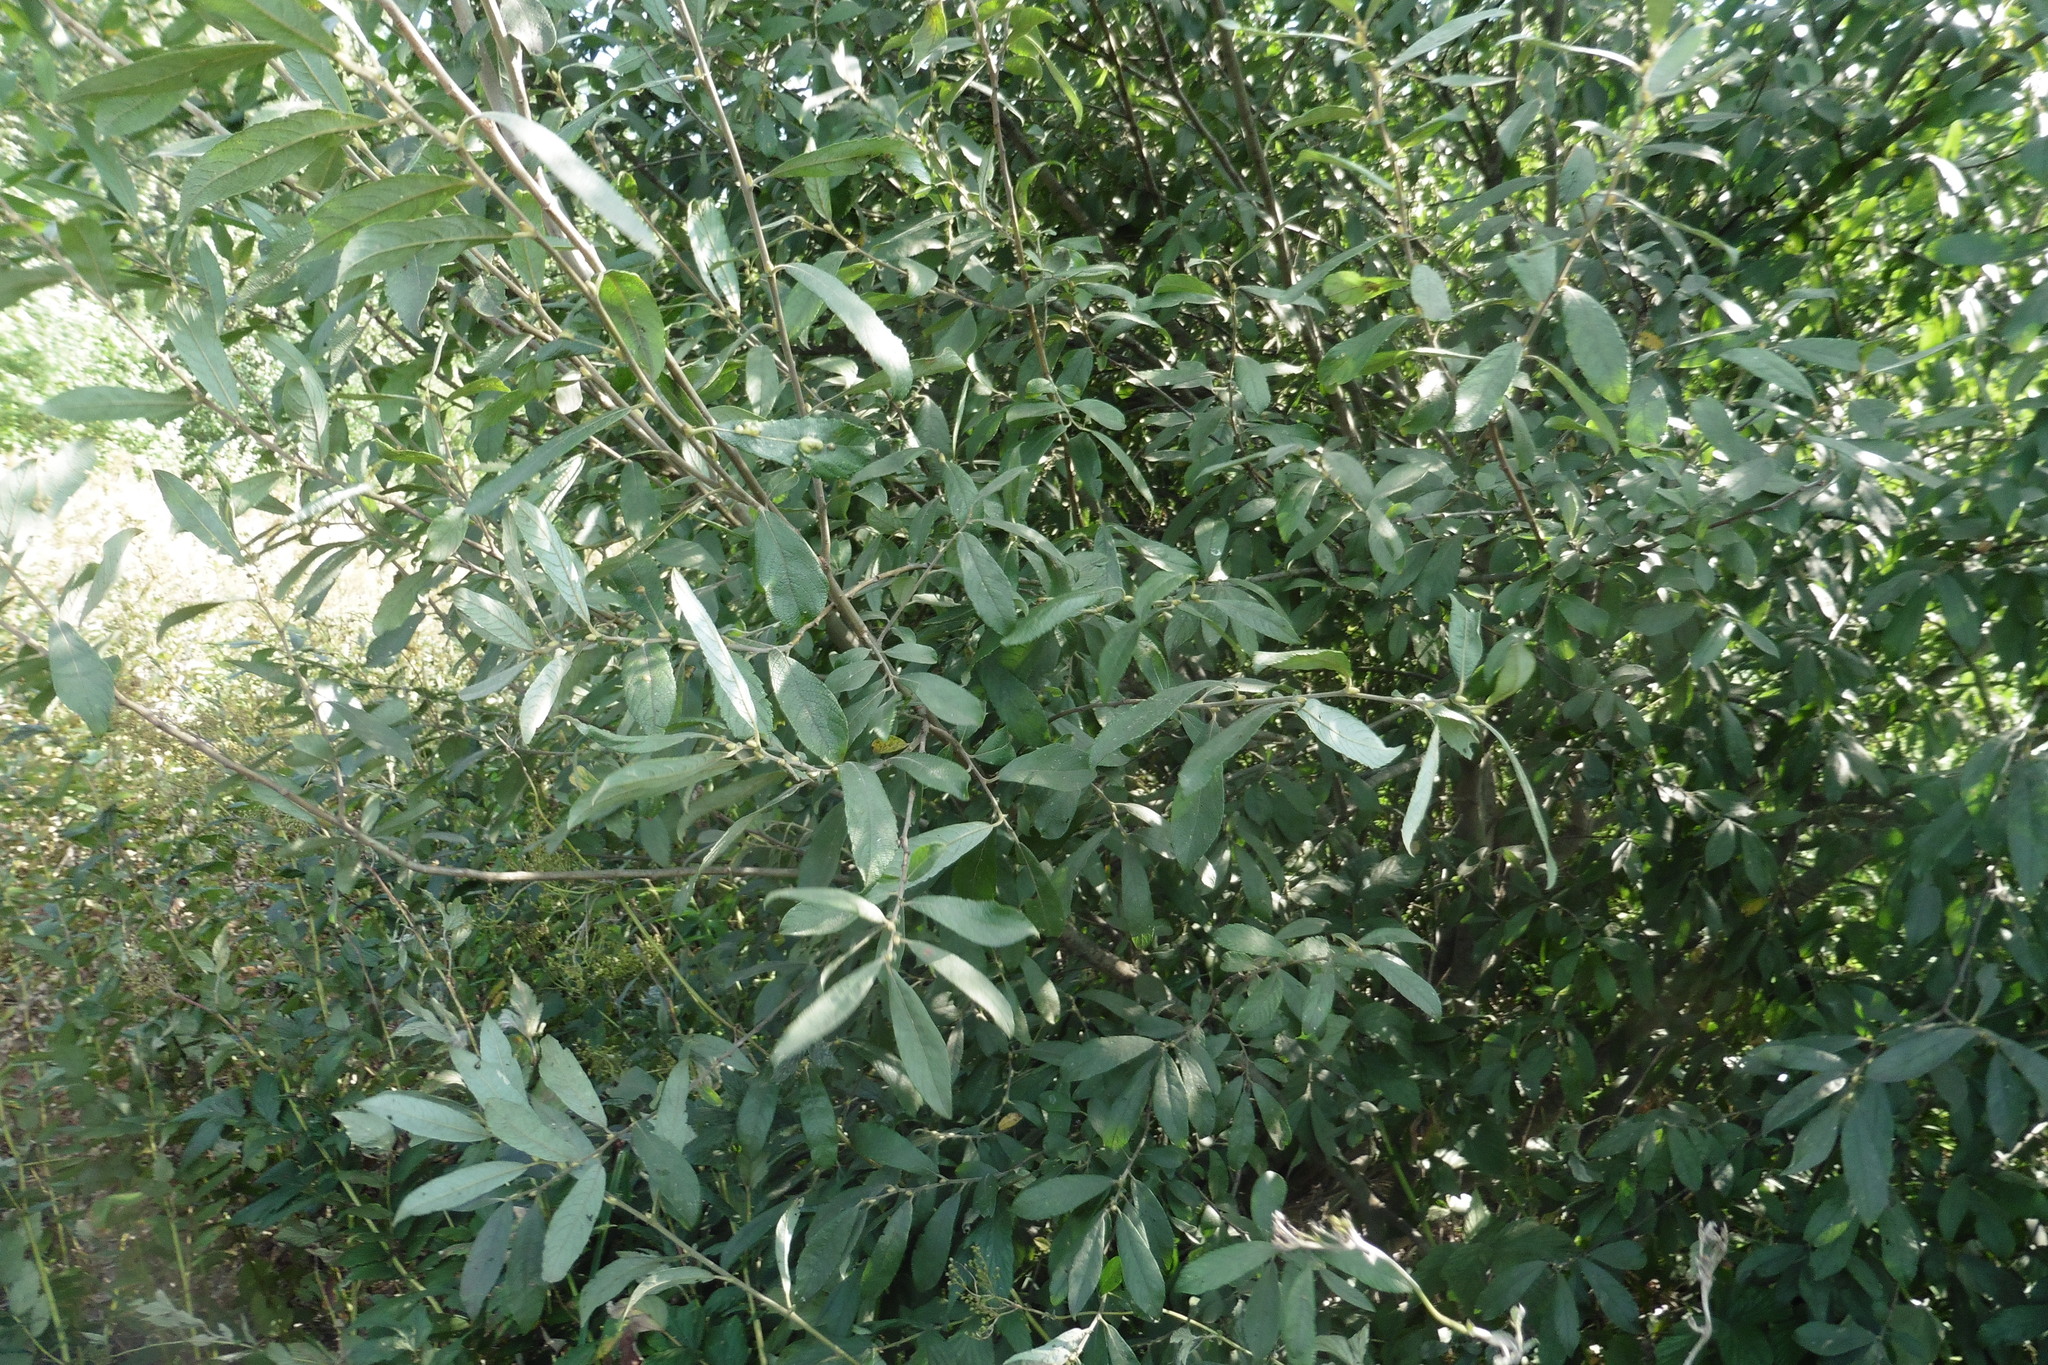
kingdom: Plantae
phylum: Tracheophyta
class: Magnoliopsida
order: Malpighiales
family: Salicaceae
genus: Salix
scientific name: Salix cinerea
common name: Common sallow
